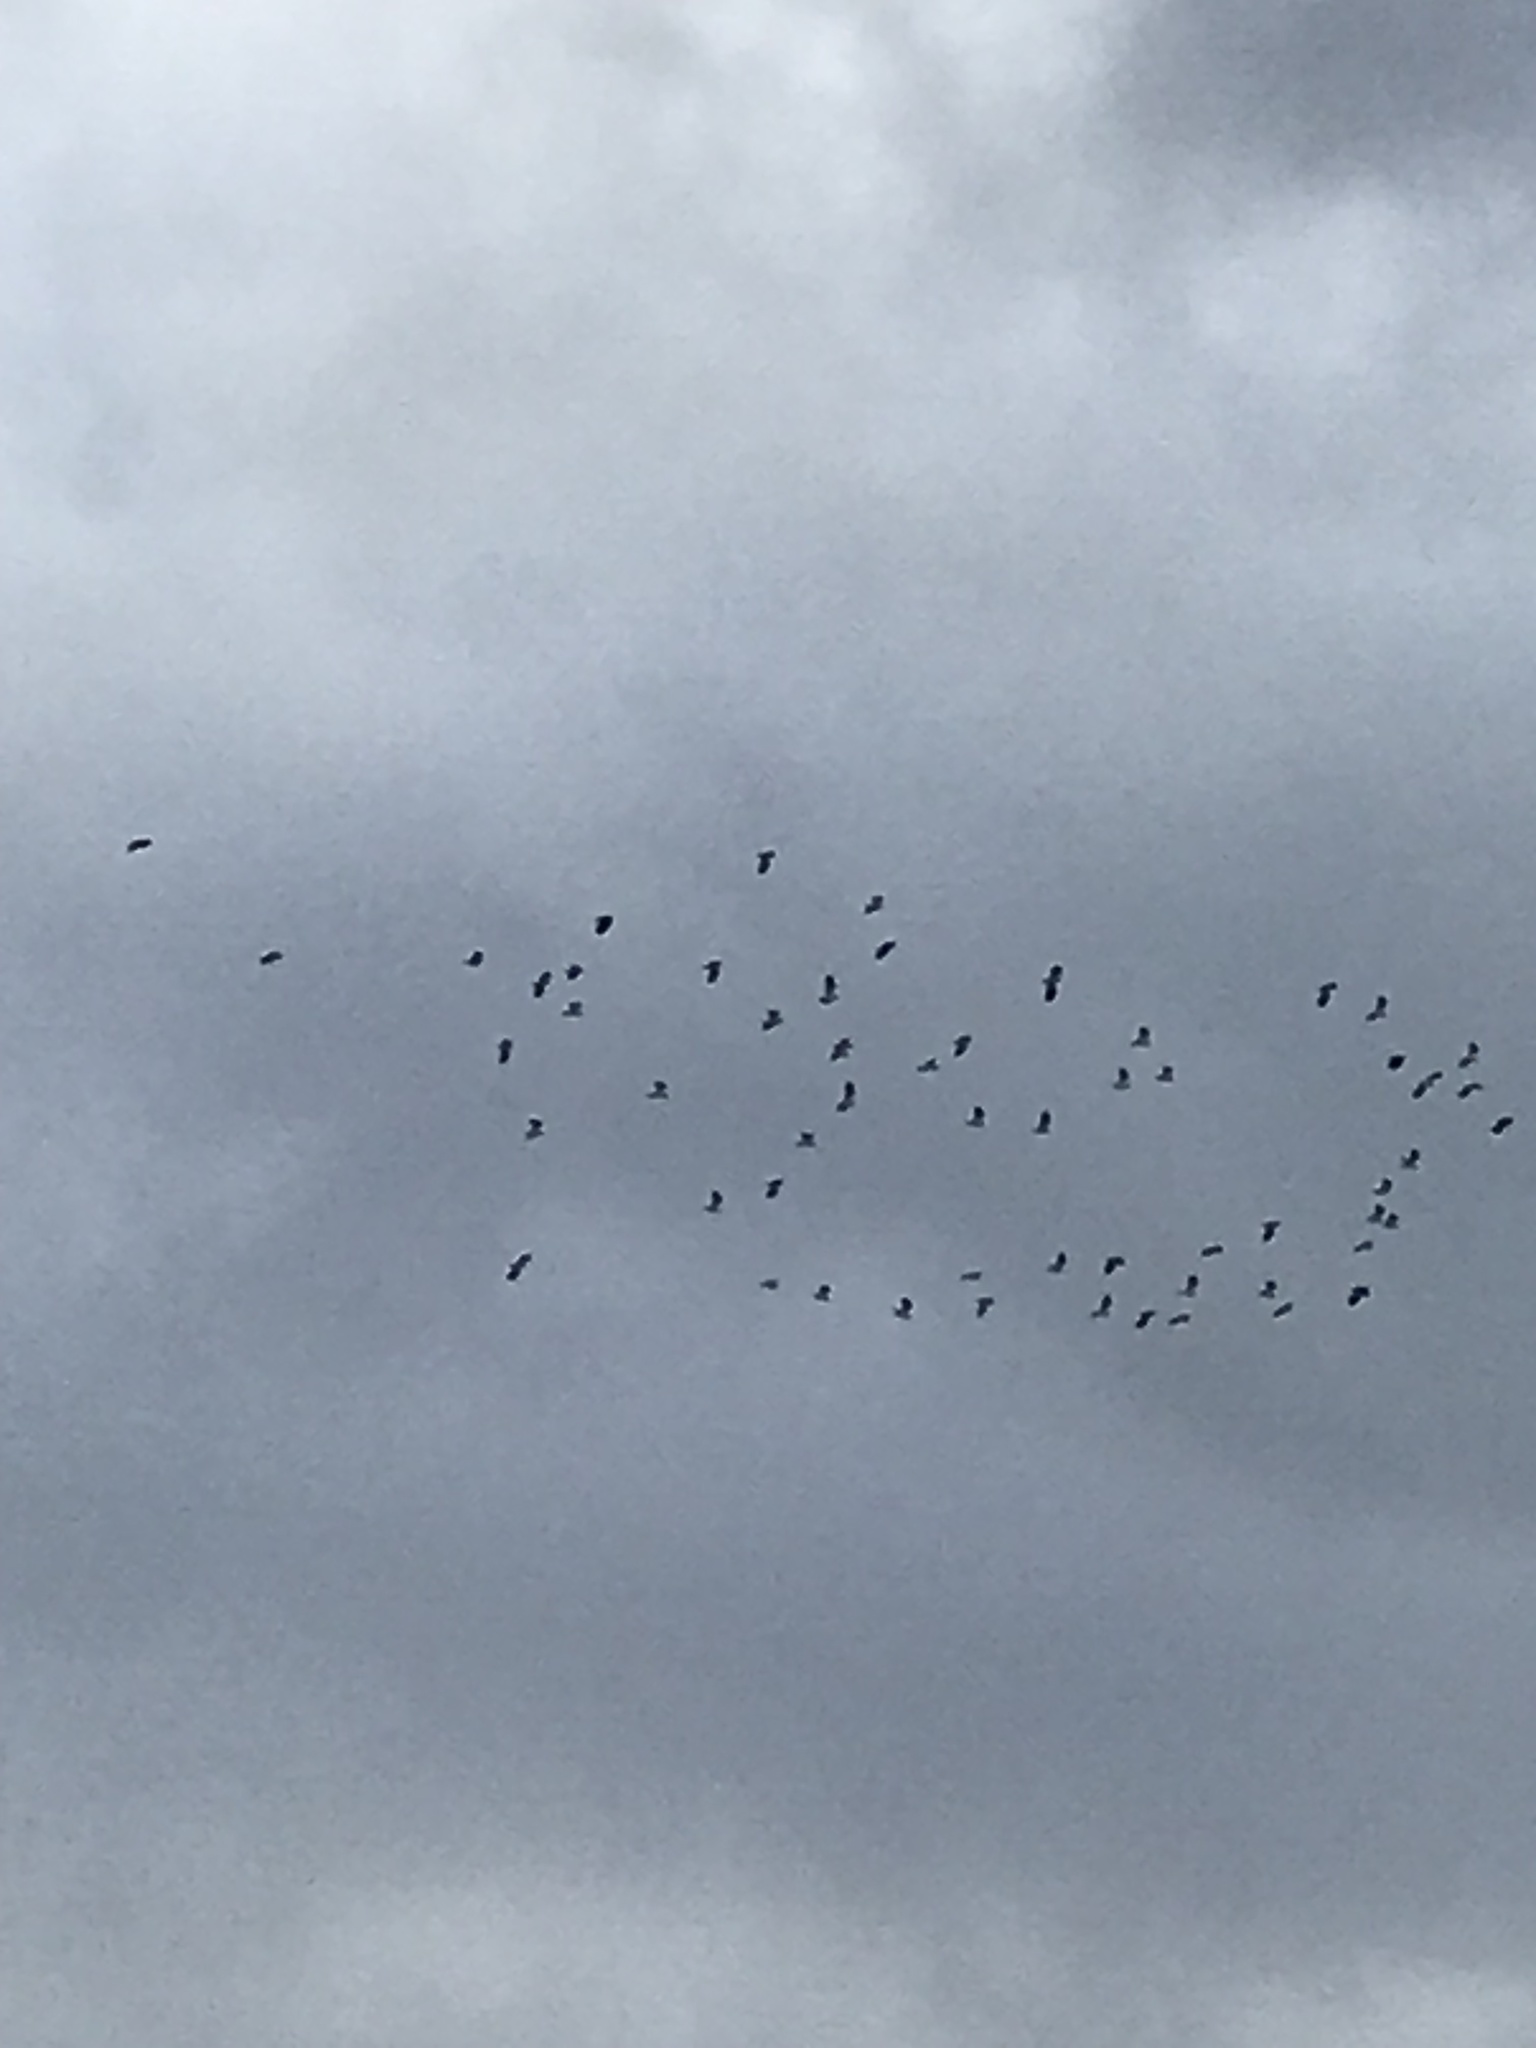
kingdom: Animalia
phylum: Chordata
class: Aves
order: Charadriiformes
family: Charadriidae
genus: Vanellus
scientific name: Vanellus vanellus
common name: Northern lapwing
